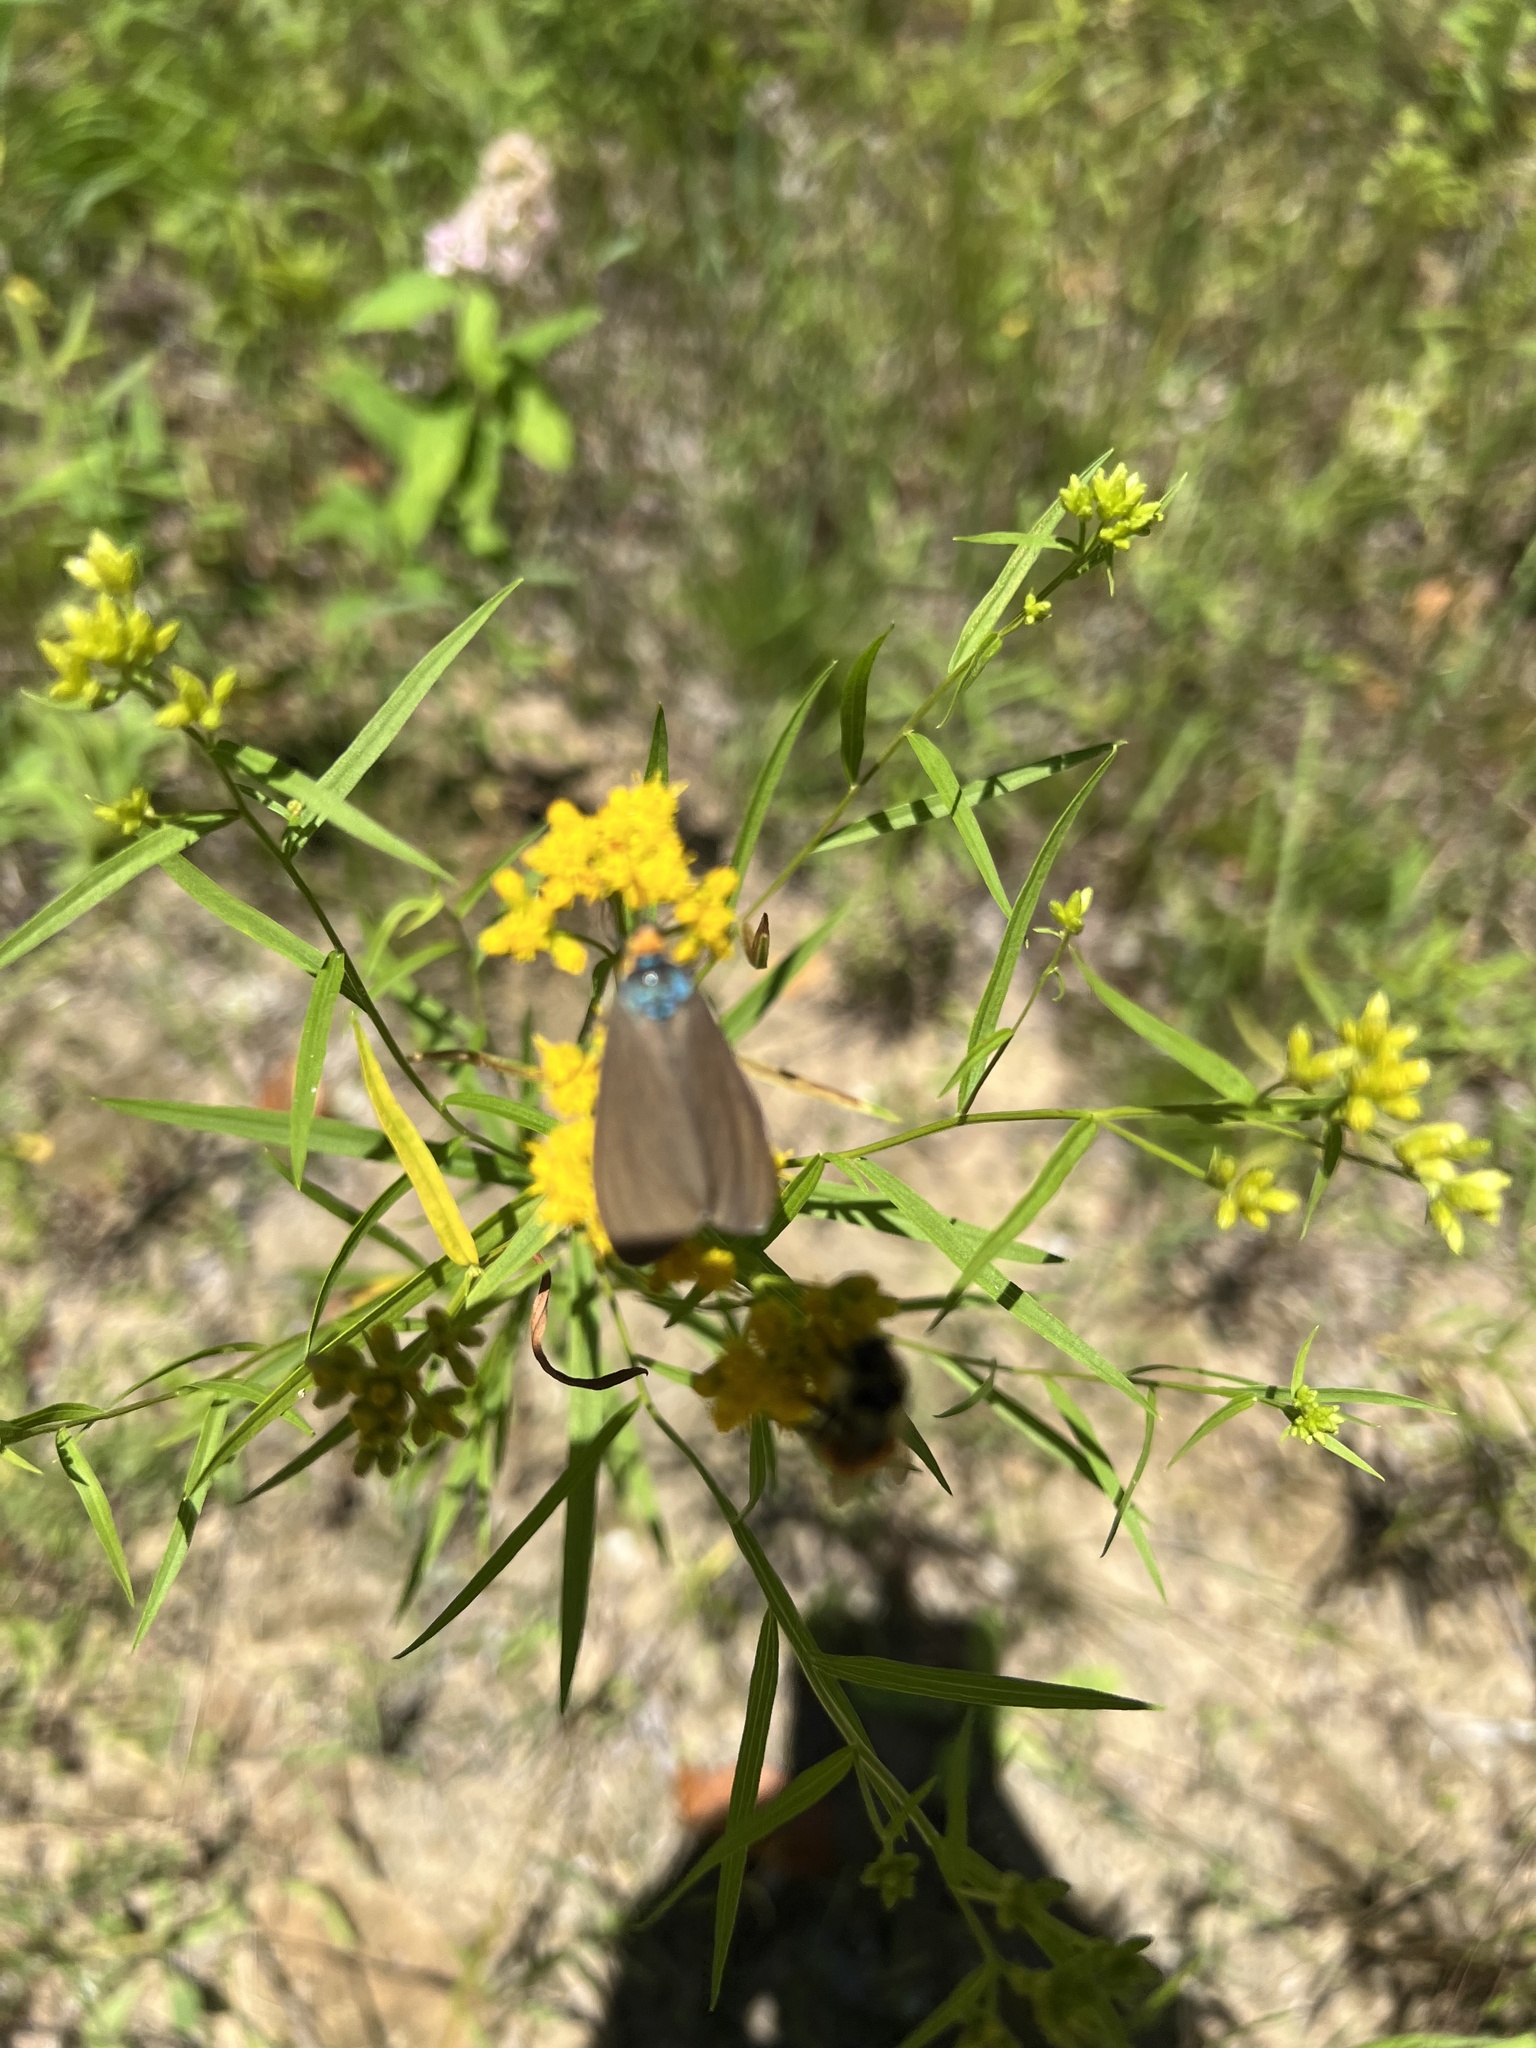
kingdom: Animalia
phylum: Arthropoda
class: Insecta
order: Lepidoptera
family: Erebidae
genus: Ctenucha
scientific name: Ctenucha virginica
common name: Virginia ctenucha moth
